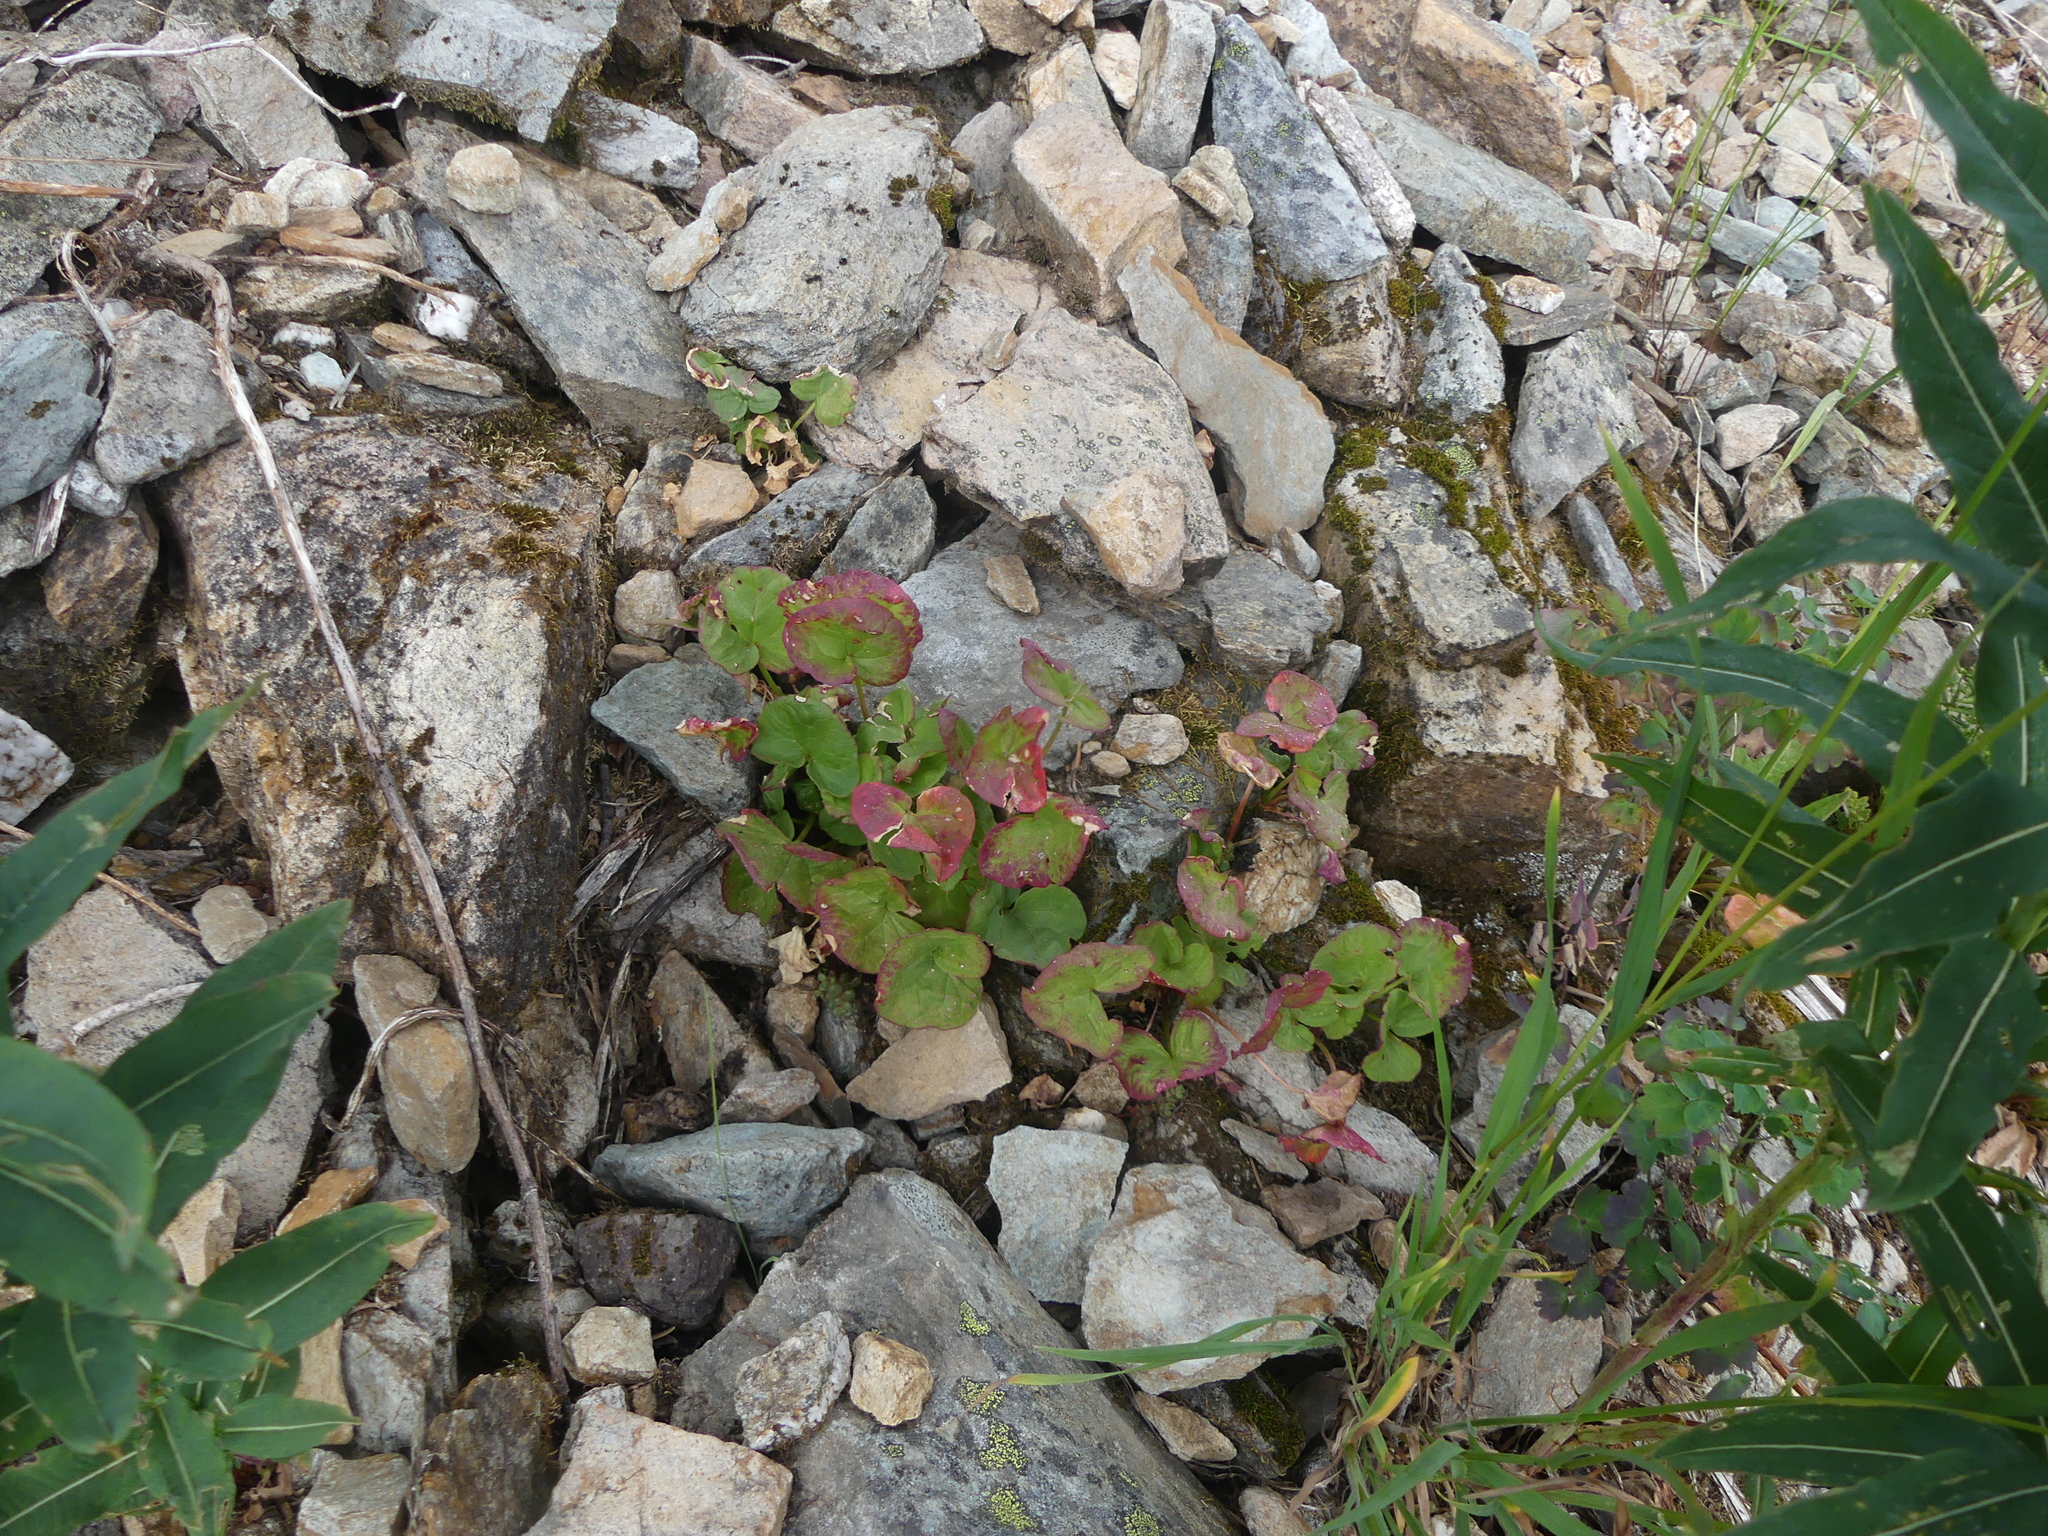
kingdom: Plantae
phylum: Tracheophyta
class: Magnoliopsida
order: Caryophyllales
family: Polygonaceae
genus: Oxyria
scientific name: Oxyria digyna
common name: Alpine mountain-sorrel
